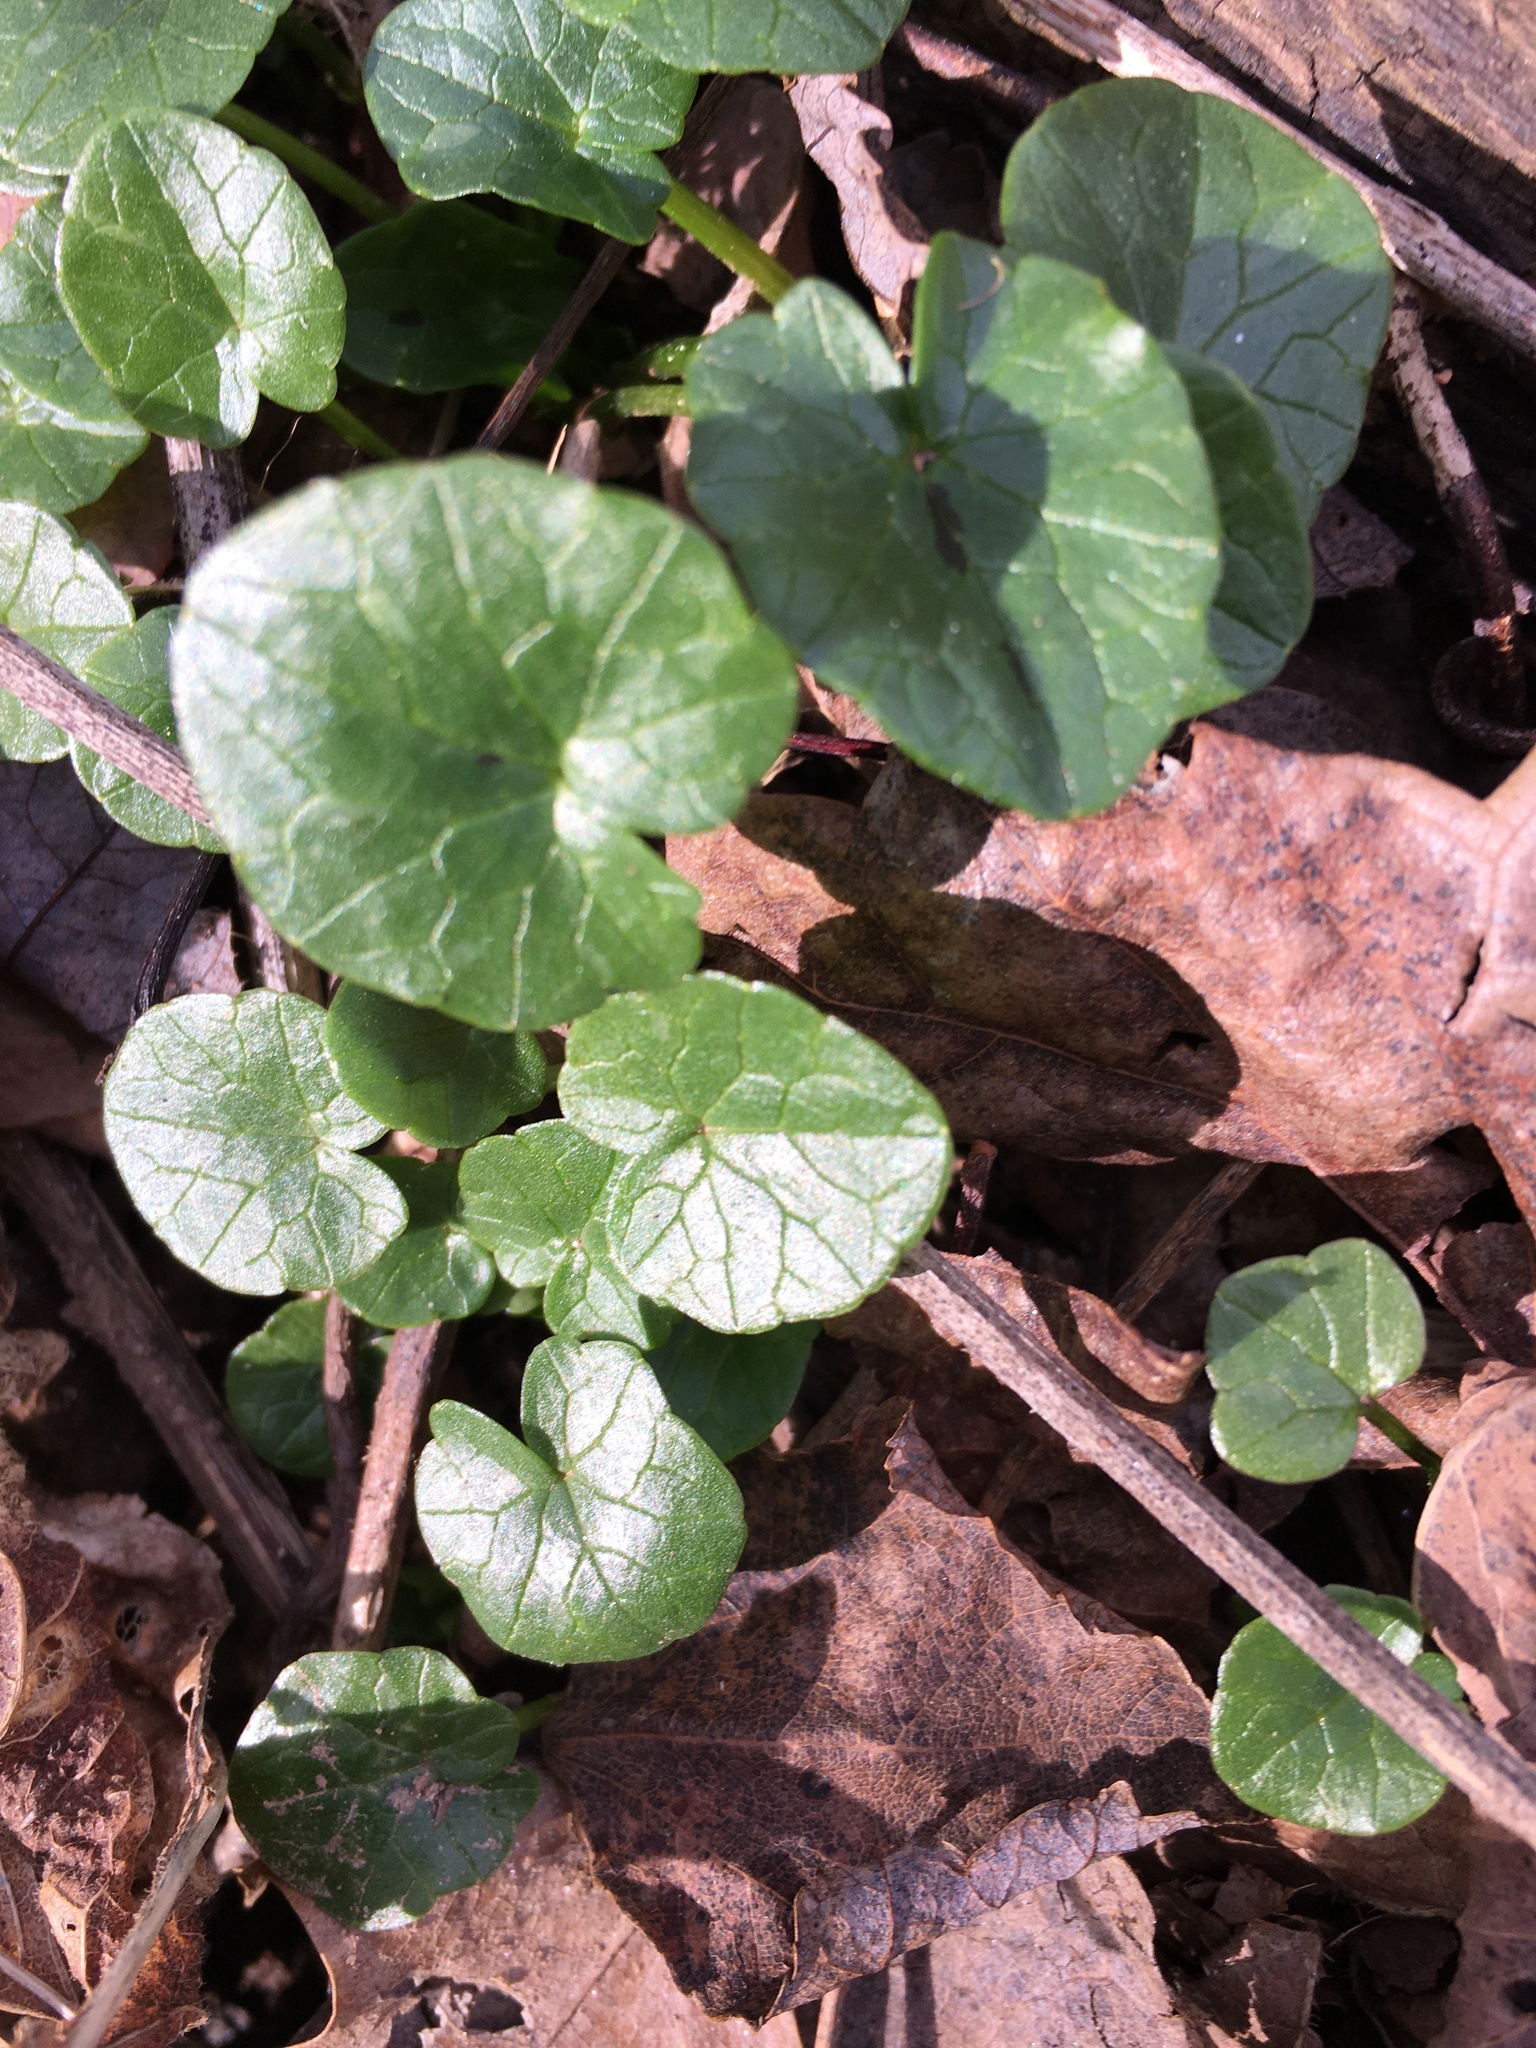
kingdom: Plantae
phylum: Tracheophyta
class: Magnoliopsida
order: Ranunculales
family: Ranunculaceae
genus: Ficaria
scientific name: Ficaria verna
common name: Lesser celandine
